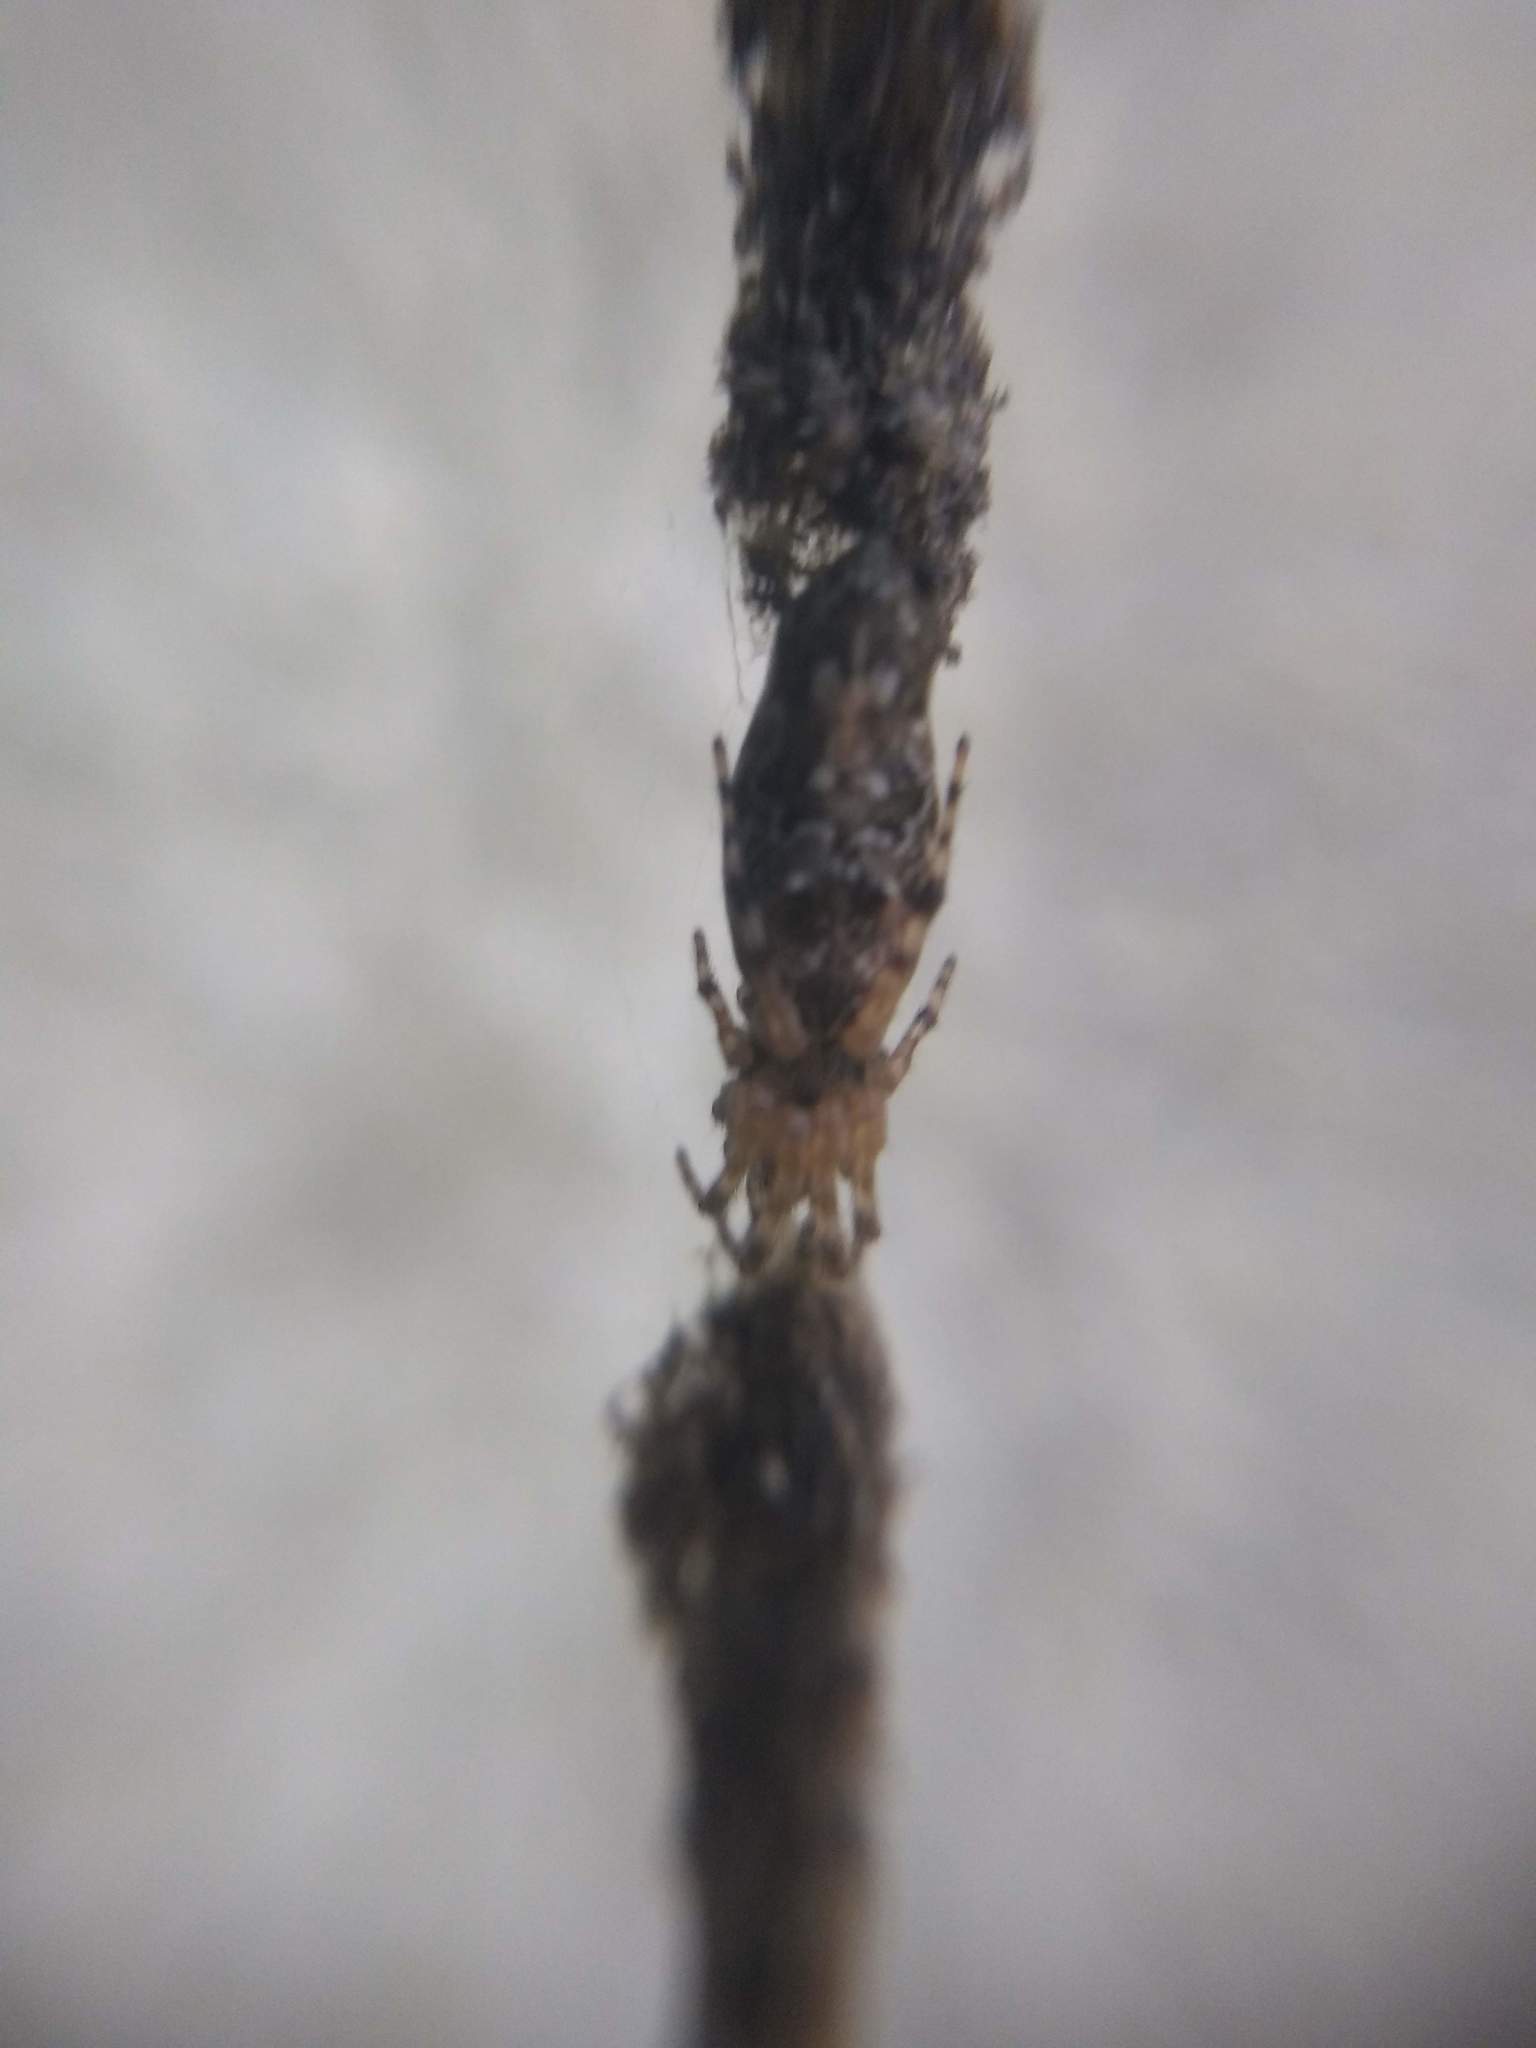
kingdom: Animalia
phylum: Arthropoda
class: Arachnida
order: Araneae
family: Araneidae
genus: Cyclosa
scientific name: Cyclosa machadinho
